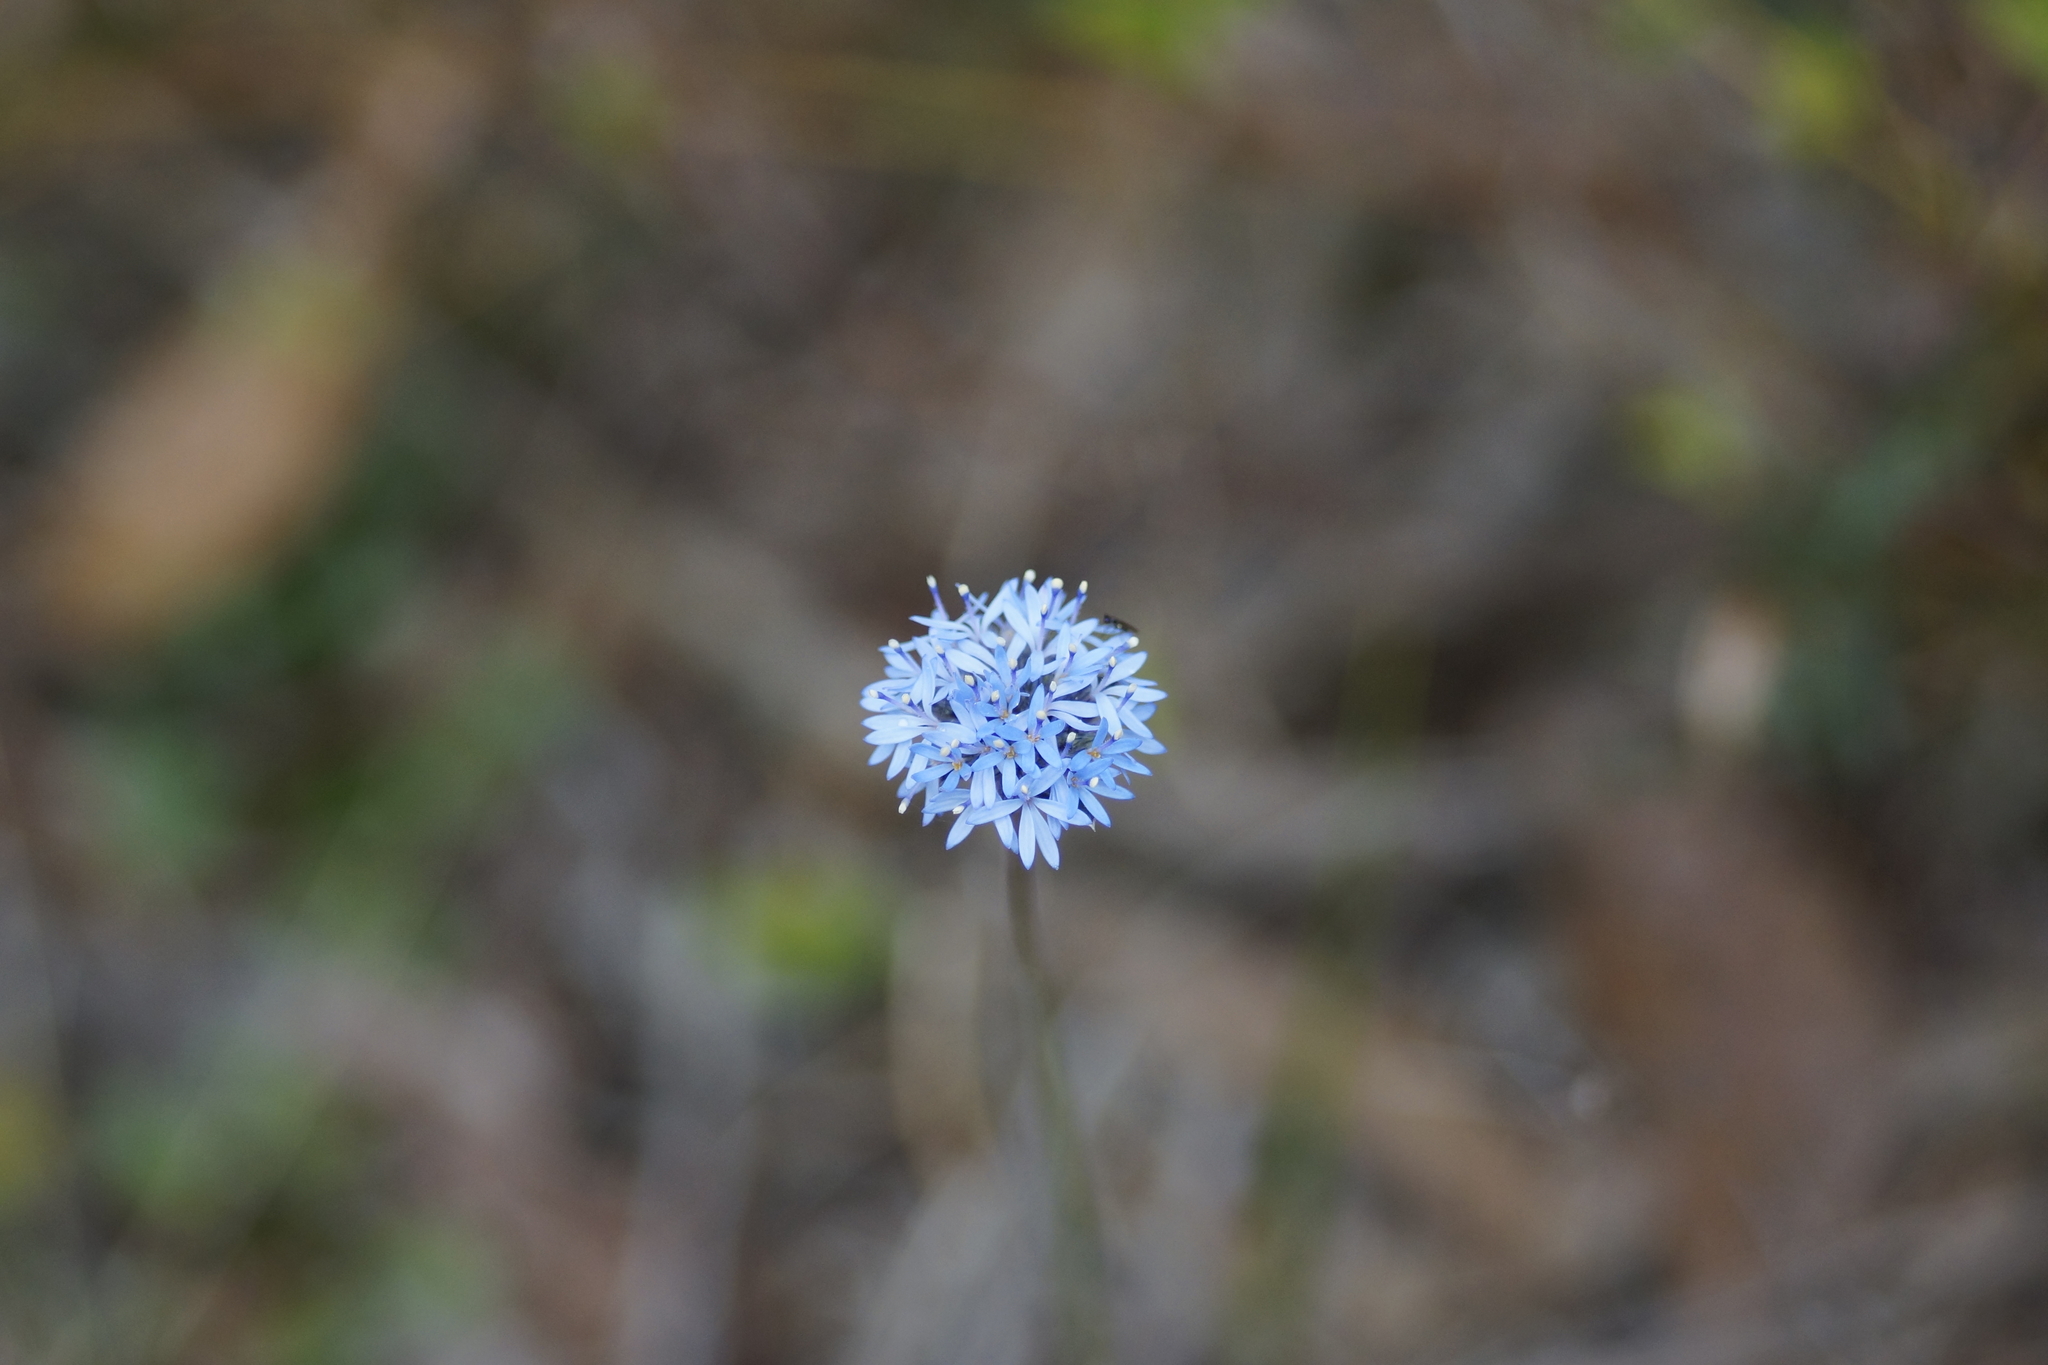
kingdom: Plantae
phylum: Tracheophyta
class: Magnoliopsida
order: Asterales
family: Goodeniaceae
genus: Brunonia
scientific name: Brunonia australis
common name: Blue pincushion
